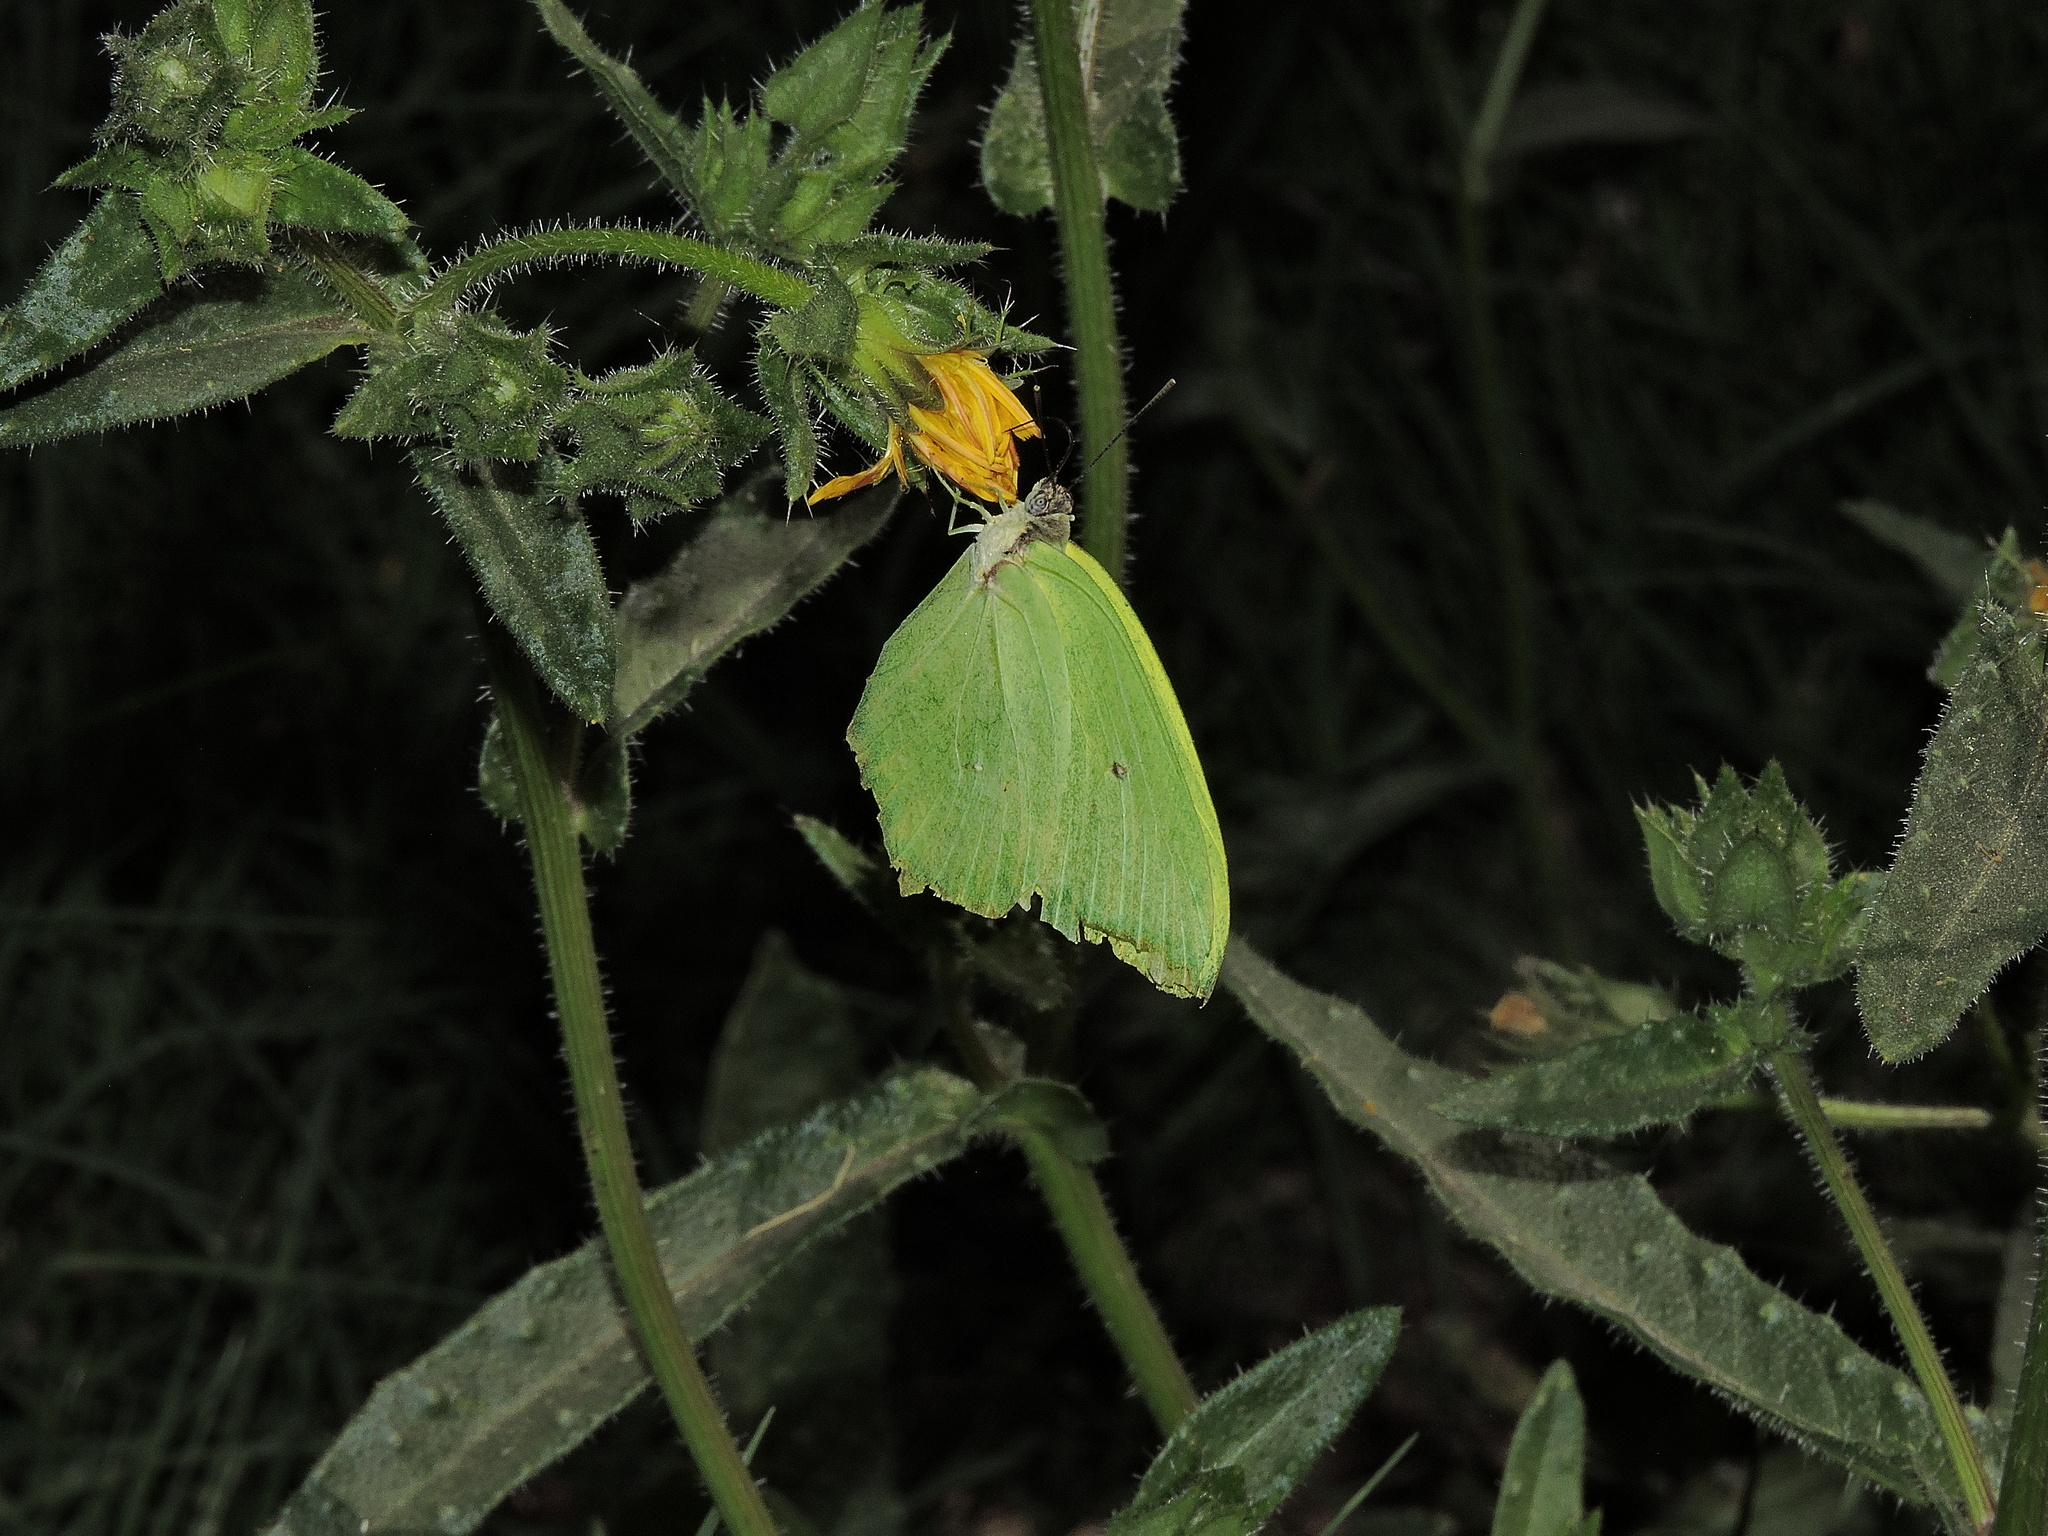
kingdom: Animalia
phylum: Arthropoda
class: Insecta
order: Lepidoptera
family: Pieridae
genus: Anteos
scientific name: Anteos maerula
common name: Angled sulphur
